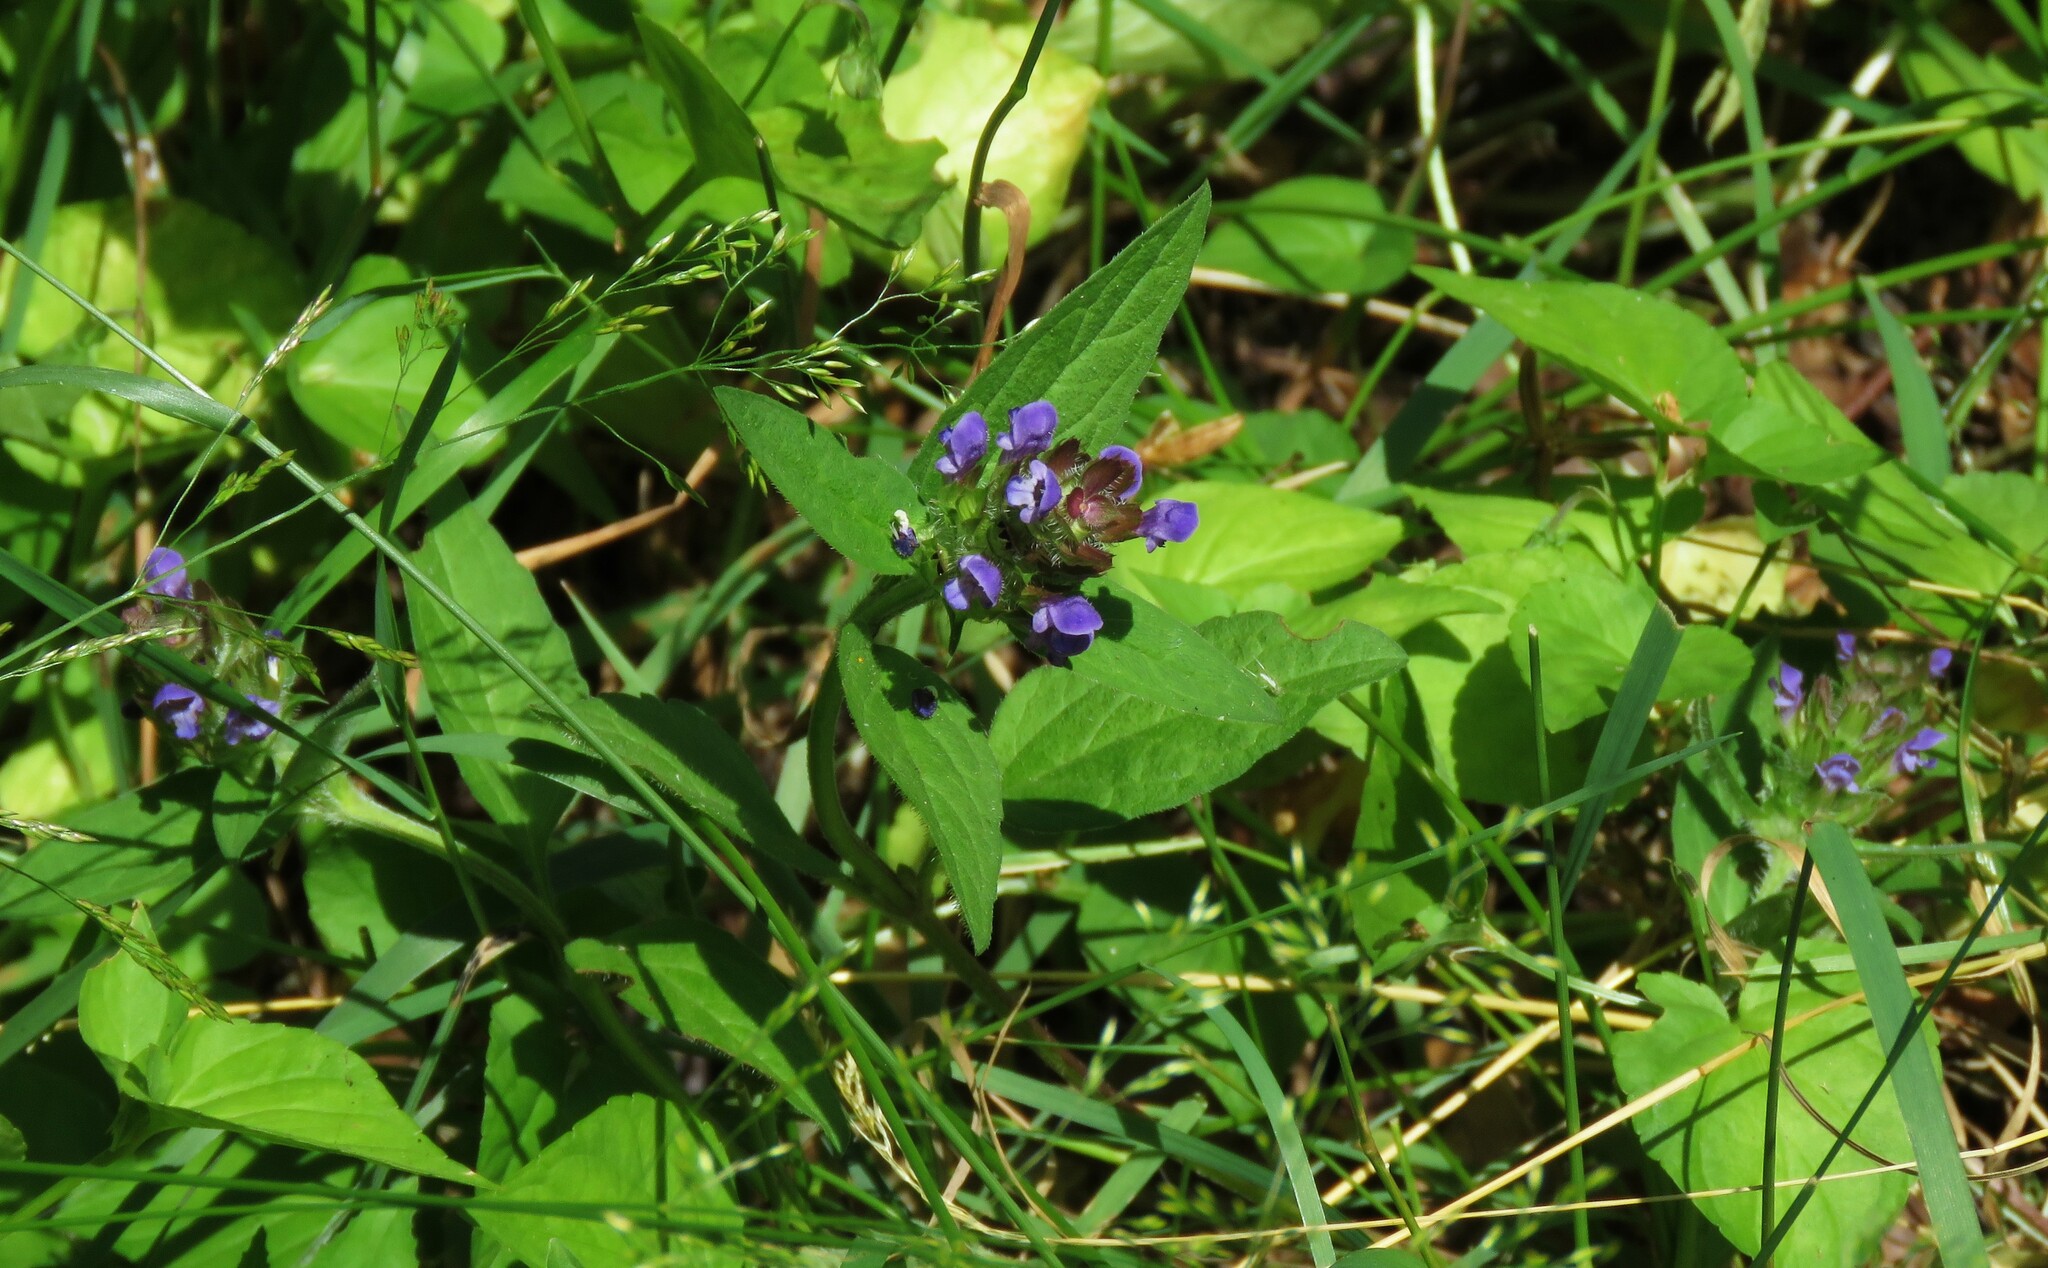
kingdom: Plantae
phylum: Tracheophyta
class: Magnoliopsida
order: Lamiales
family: Lamiaceae
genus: Prunella
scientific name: Prunella vulgaris
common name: Heal-all
